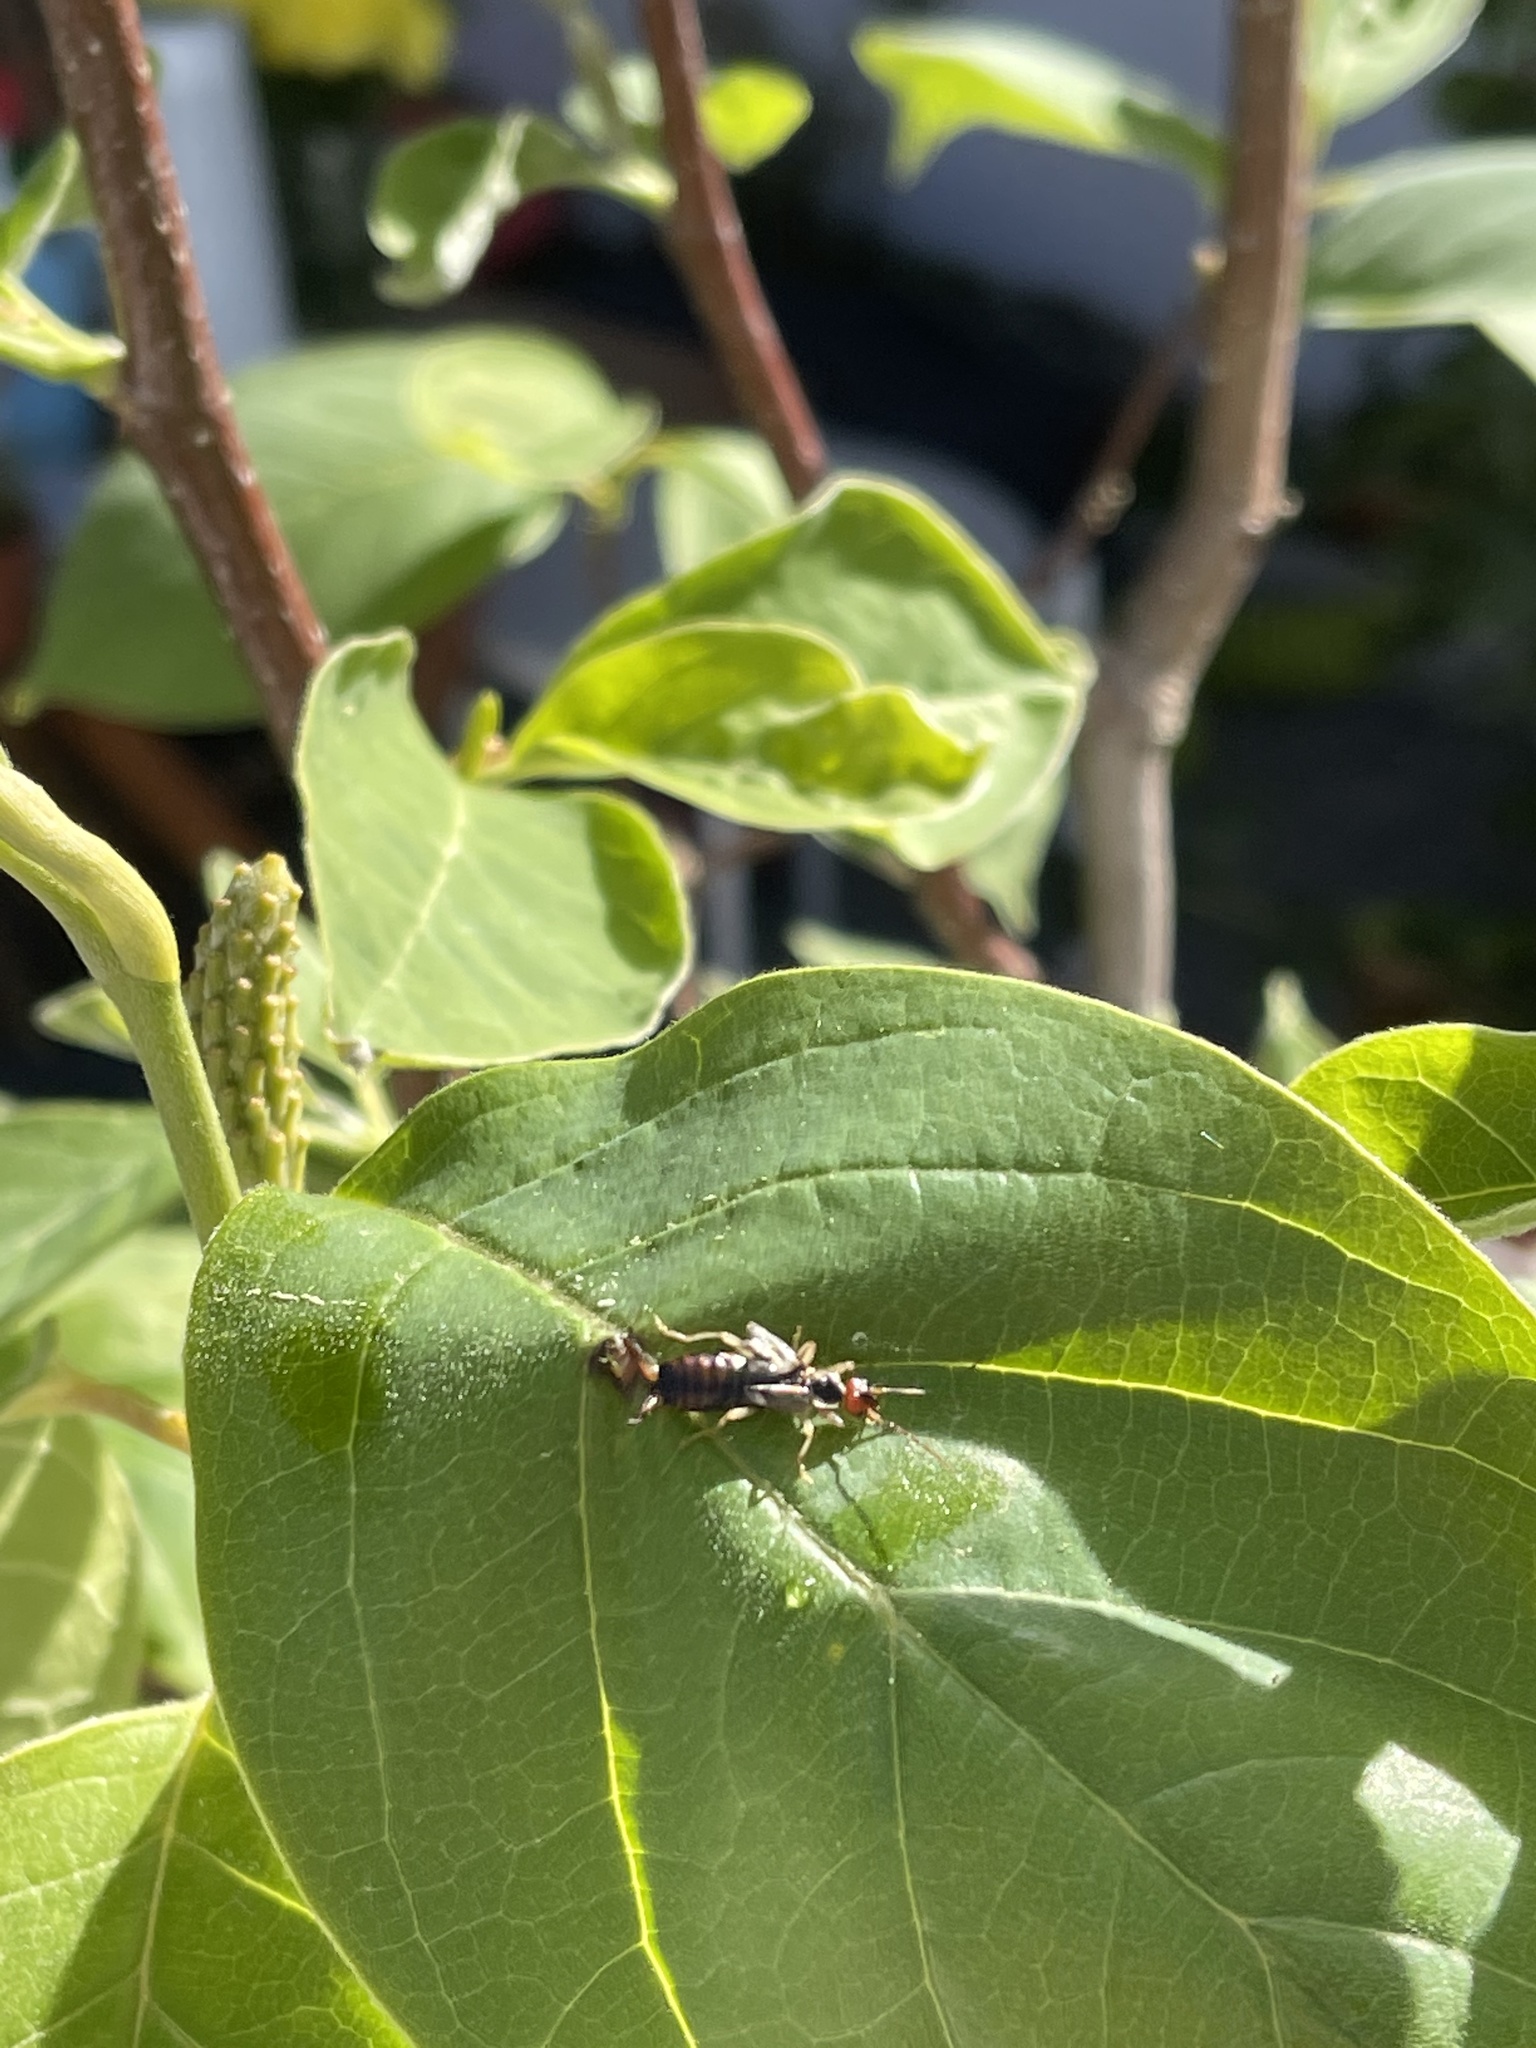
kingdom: Animalia
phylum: Arthropoda
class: Insecta
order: Dermaptera
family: Forficulidae
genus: Forficula
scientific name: Forficula
